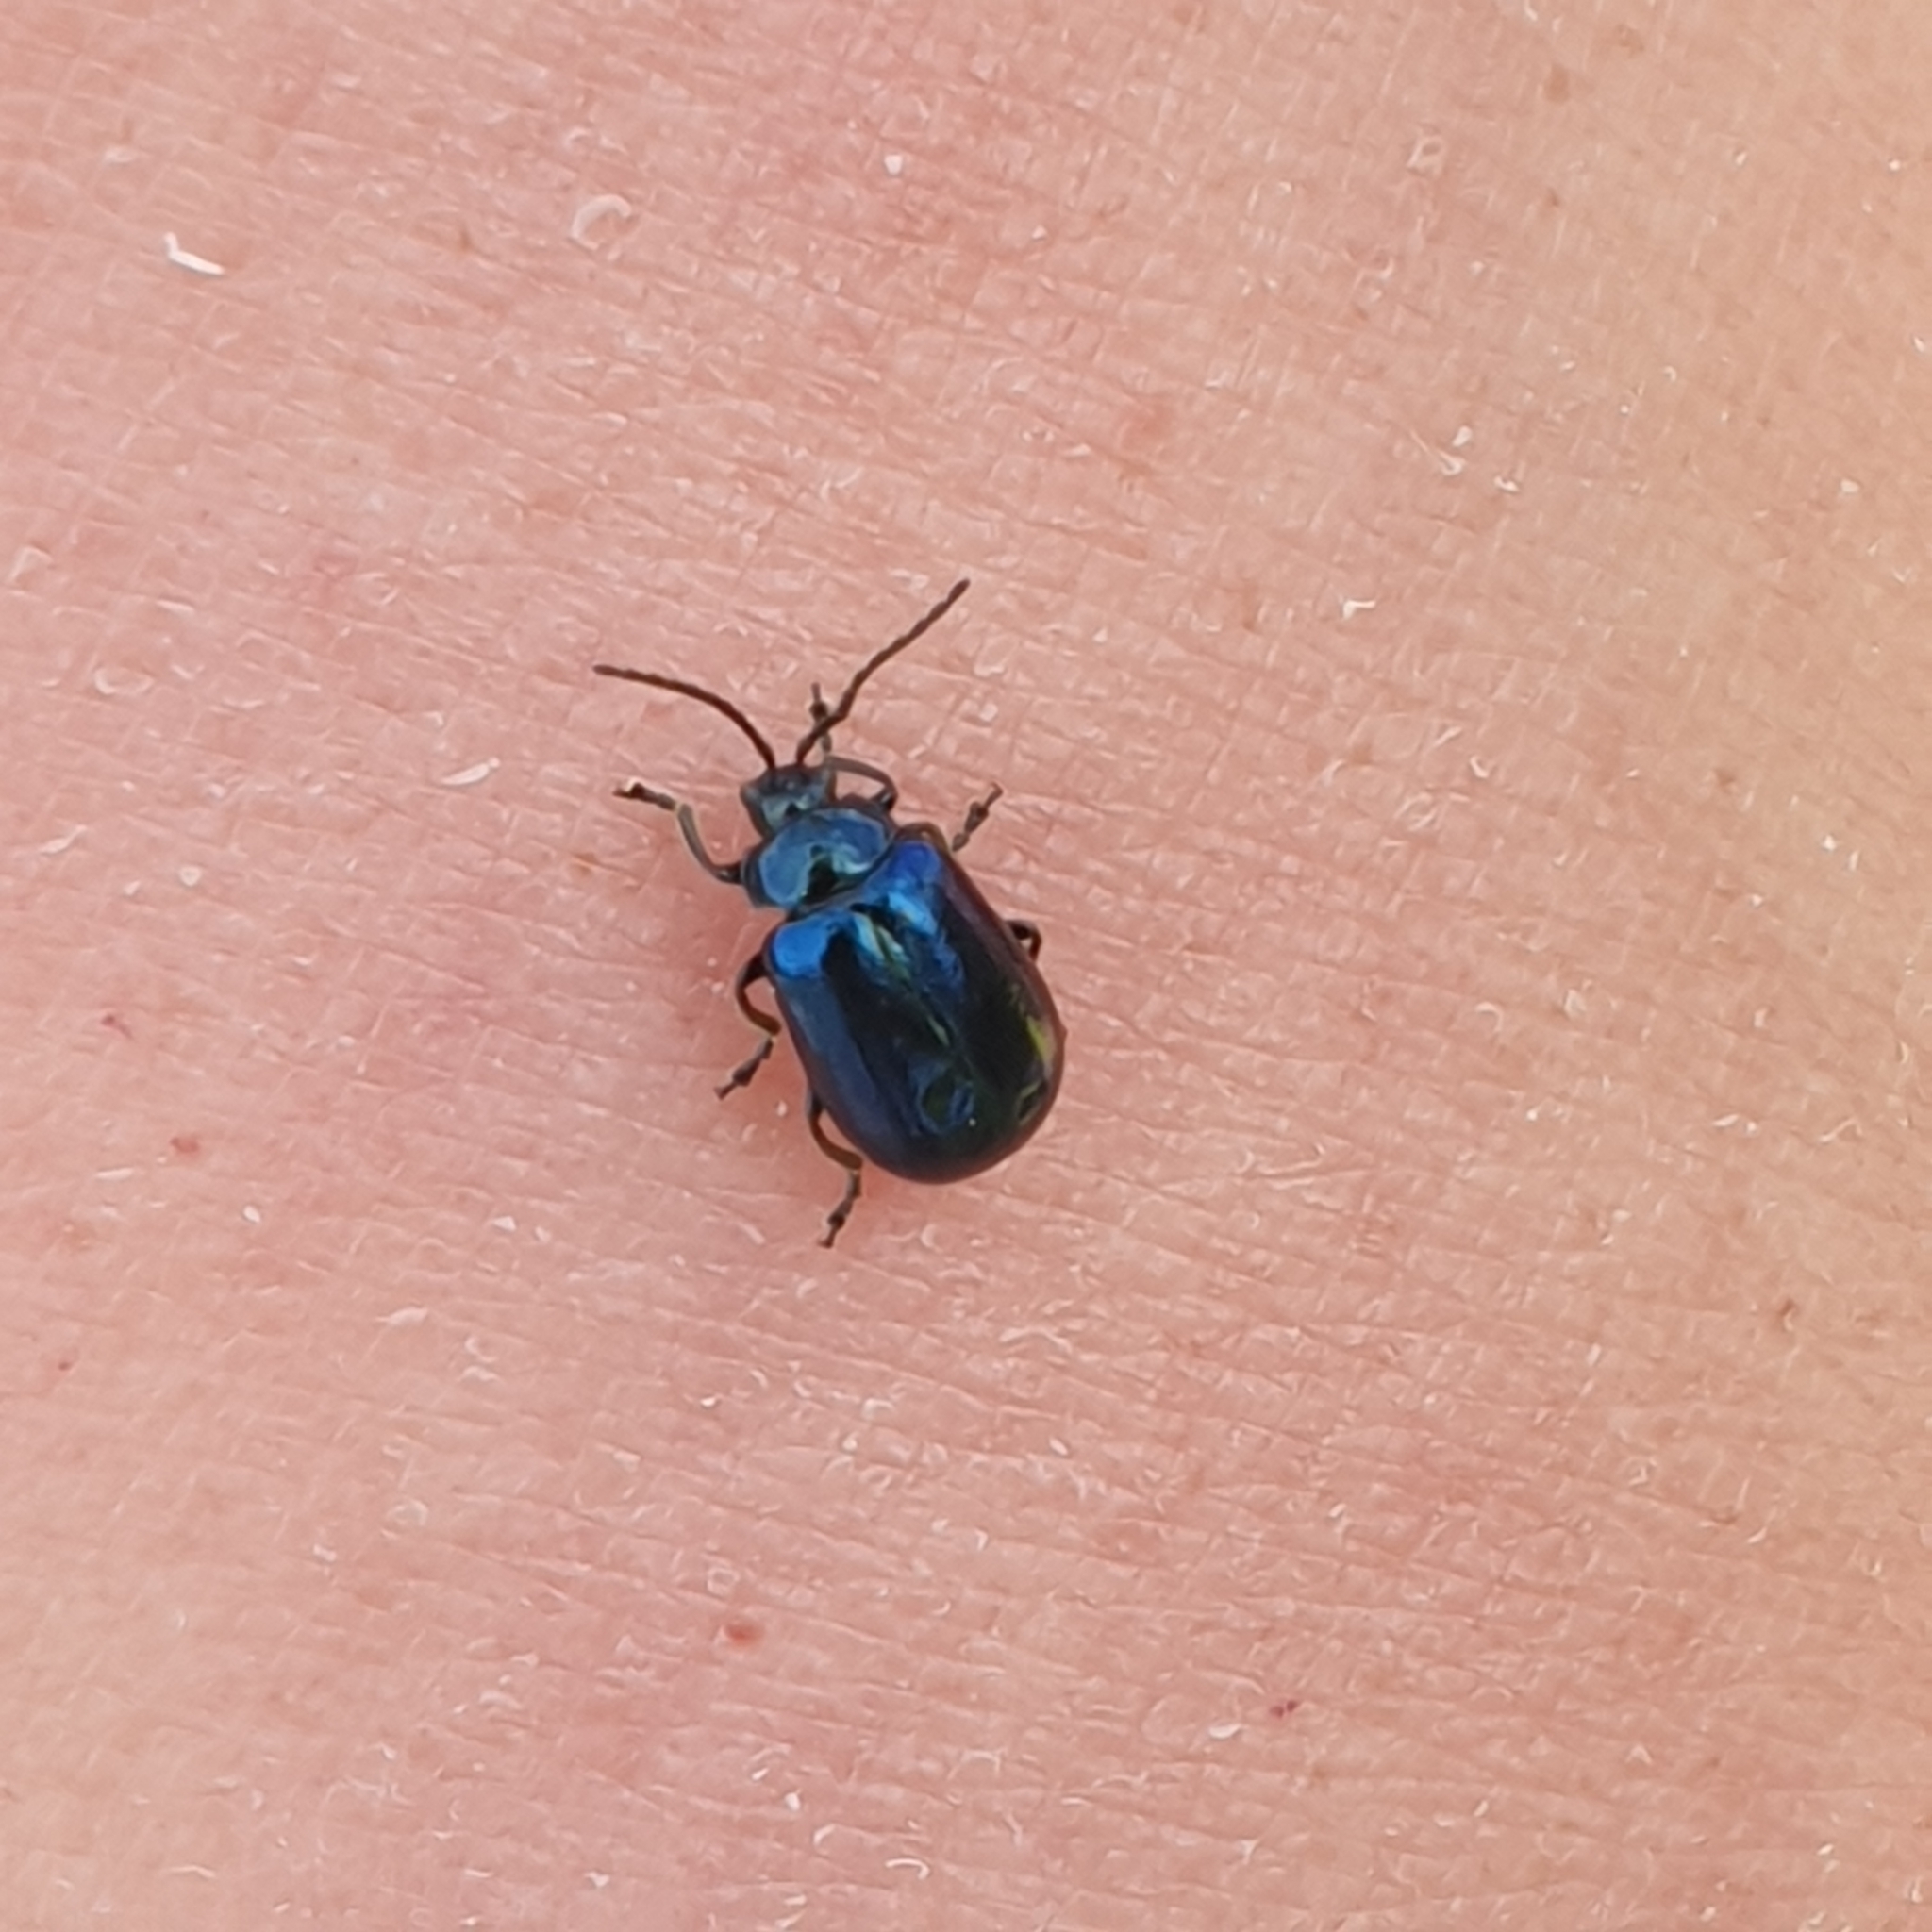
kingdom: Animalia
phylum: Arthropoda
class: Insecta
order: Coleoptera
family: Chrysomelidae
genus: Agelastica
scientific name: Agelastica alni
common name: Alder leaf beetle
